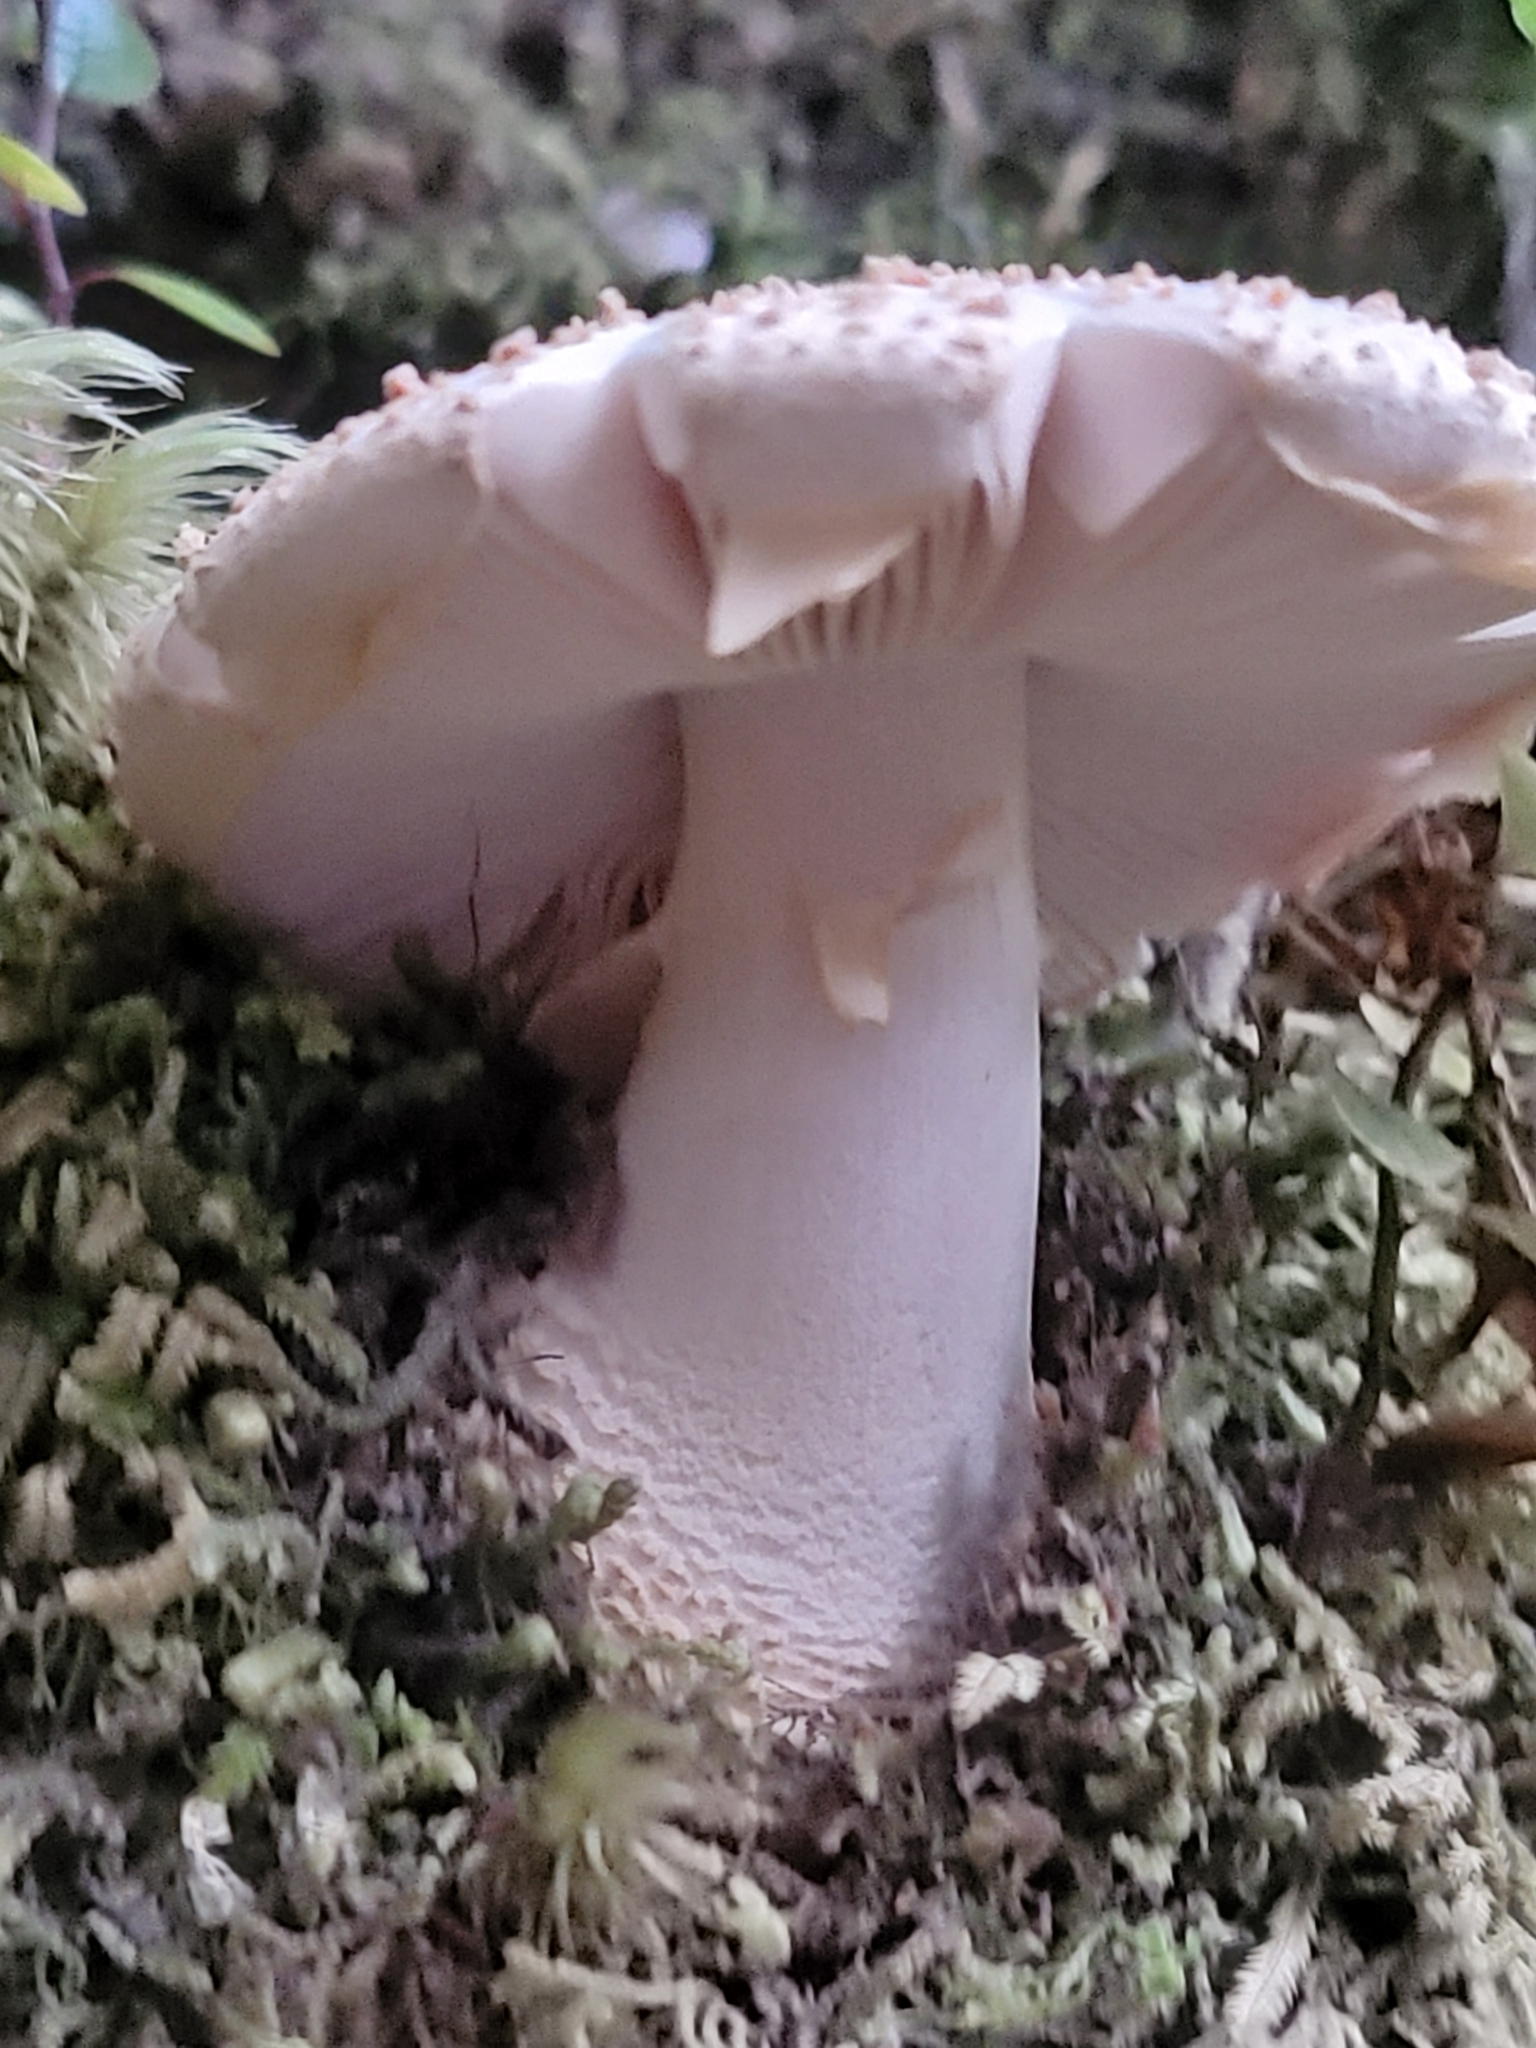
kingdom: Fungi
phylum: Basidiomycota
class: Agaricomycetes
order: Agaricales
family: Amanitaceae
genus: Amanita
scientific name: Amanita pareparina
